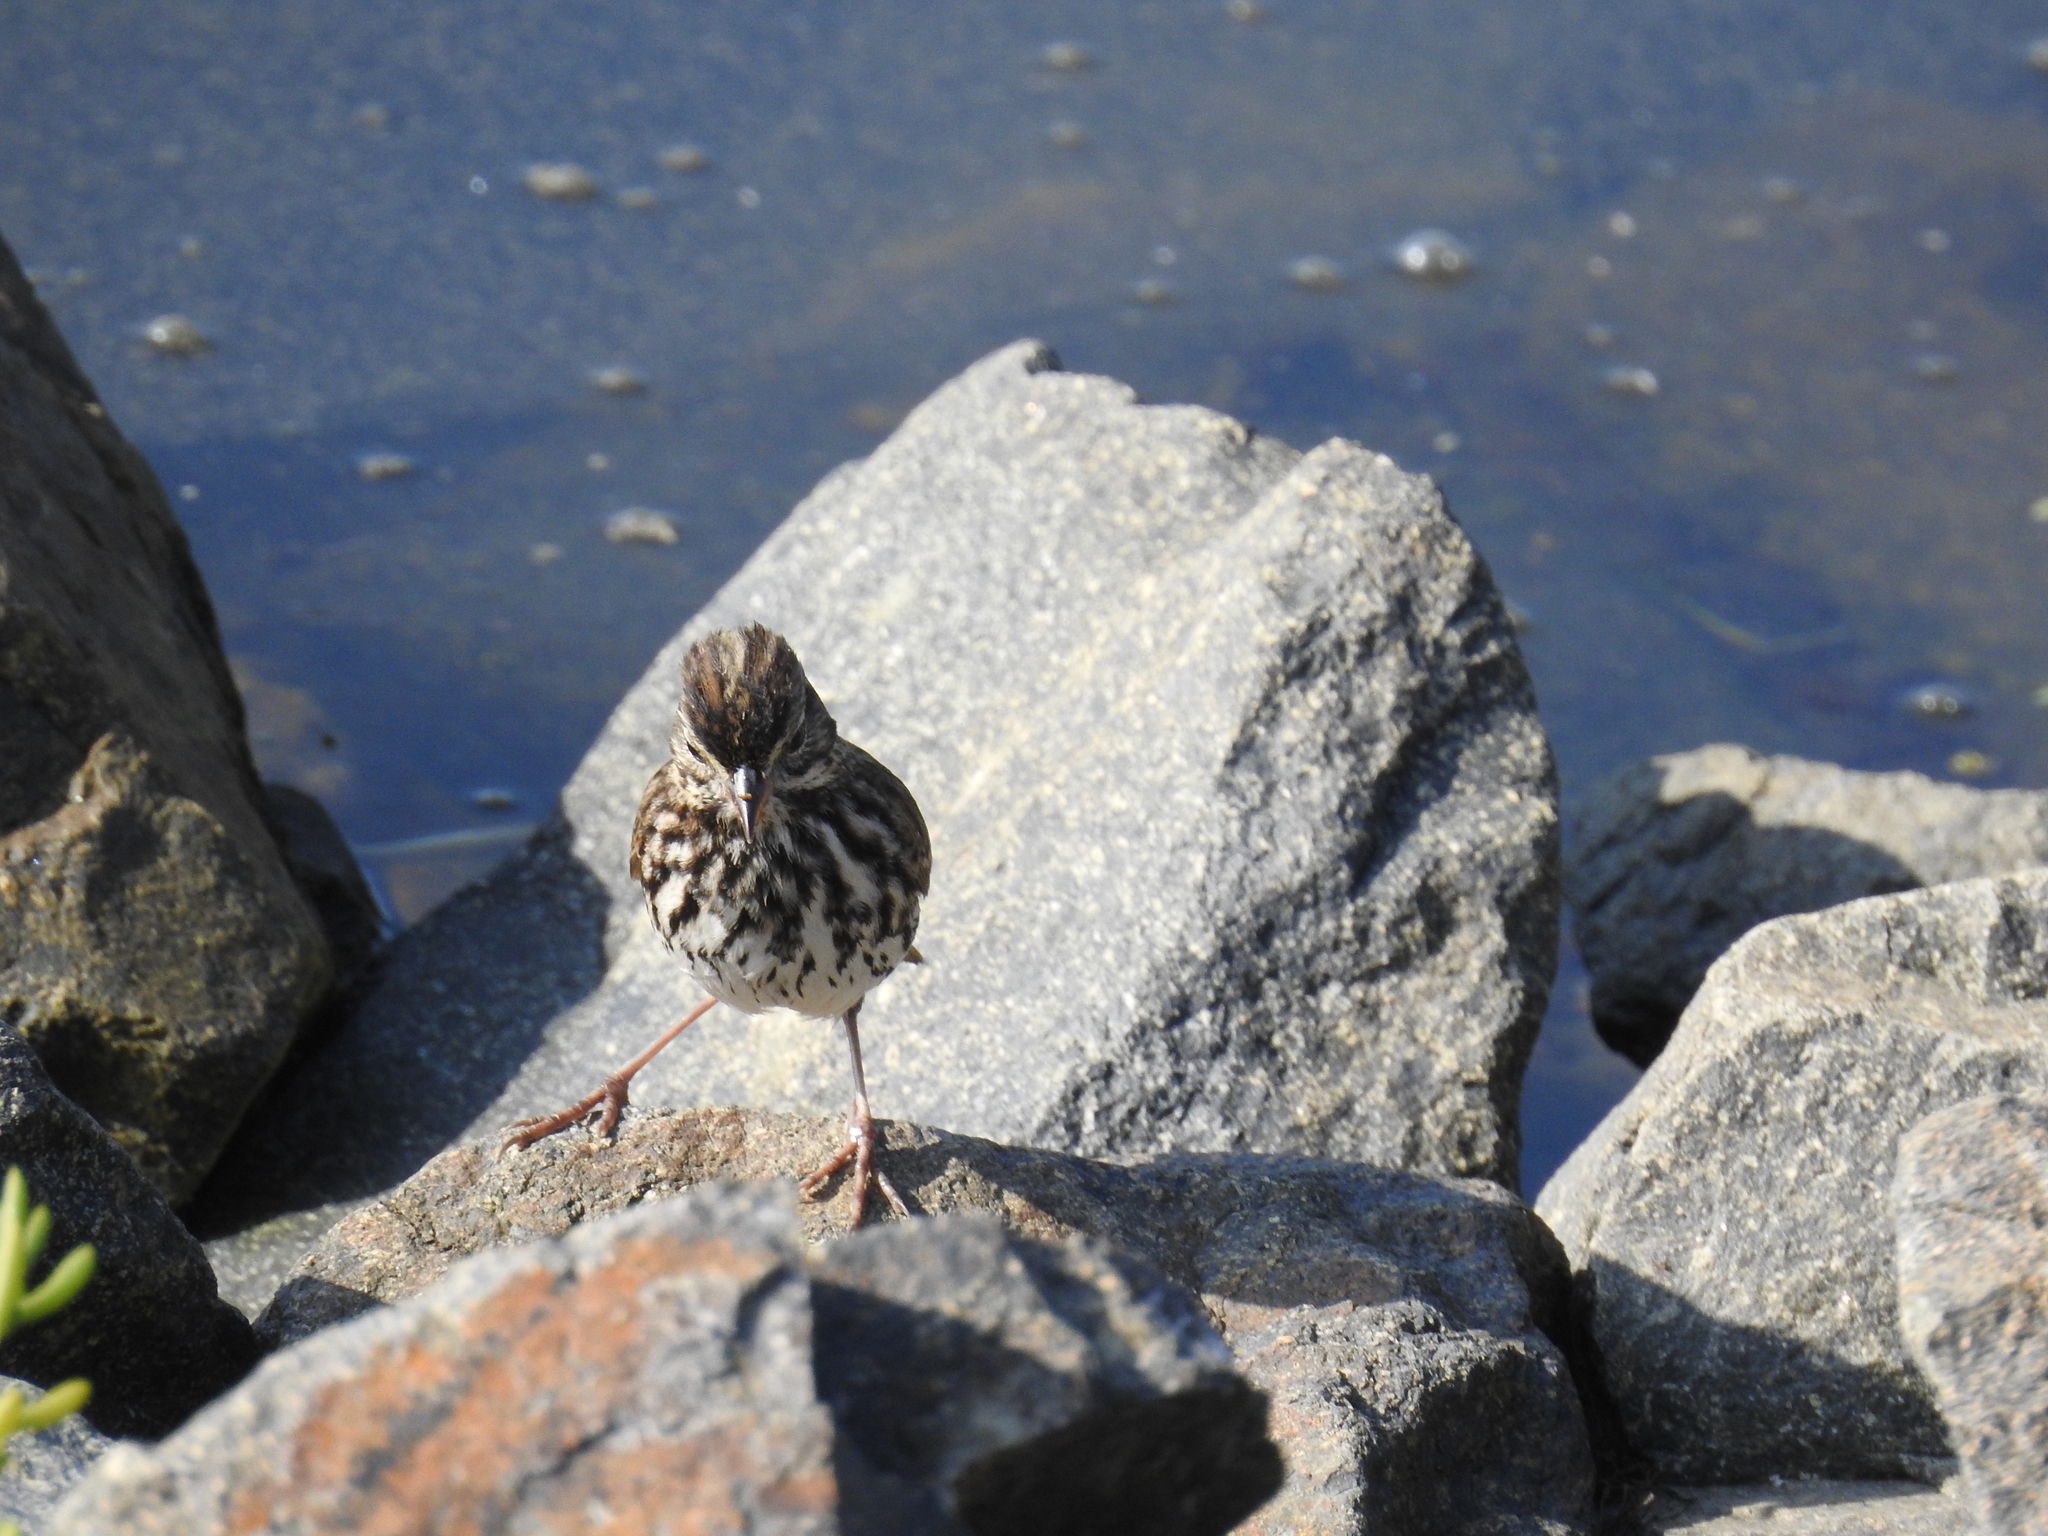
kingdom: Animalia
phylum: Chordata
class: Aves
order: Passeriformes
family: Passerellidae
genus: Passerculus
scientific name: Passerculus sandwichensis
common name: Savannah sparrow
